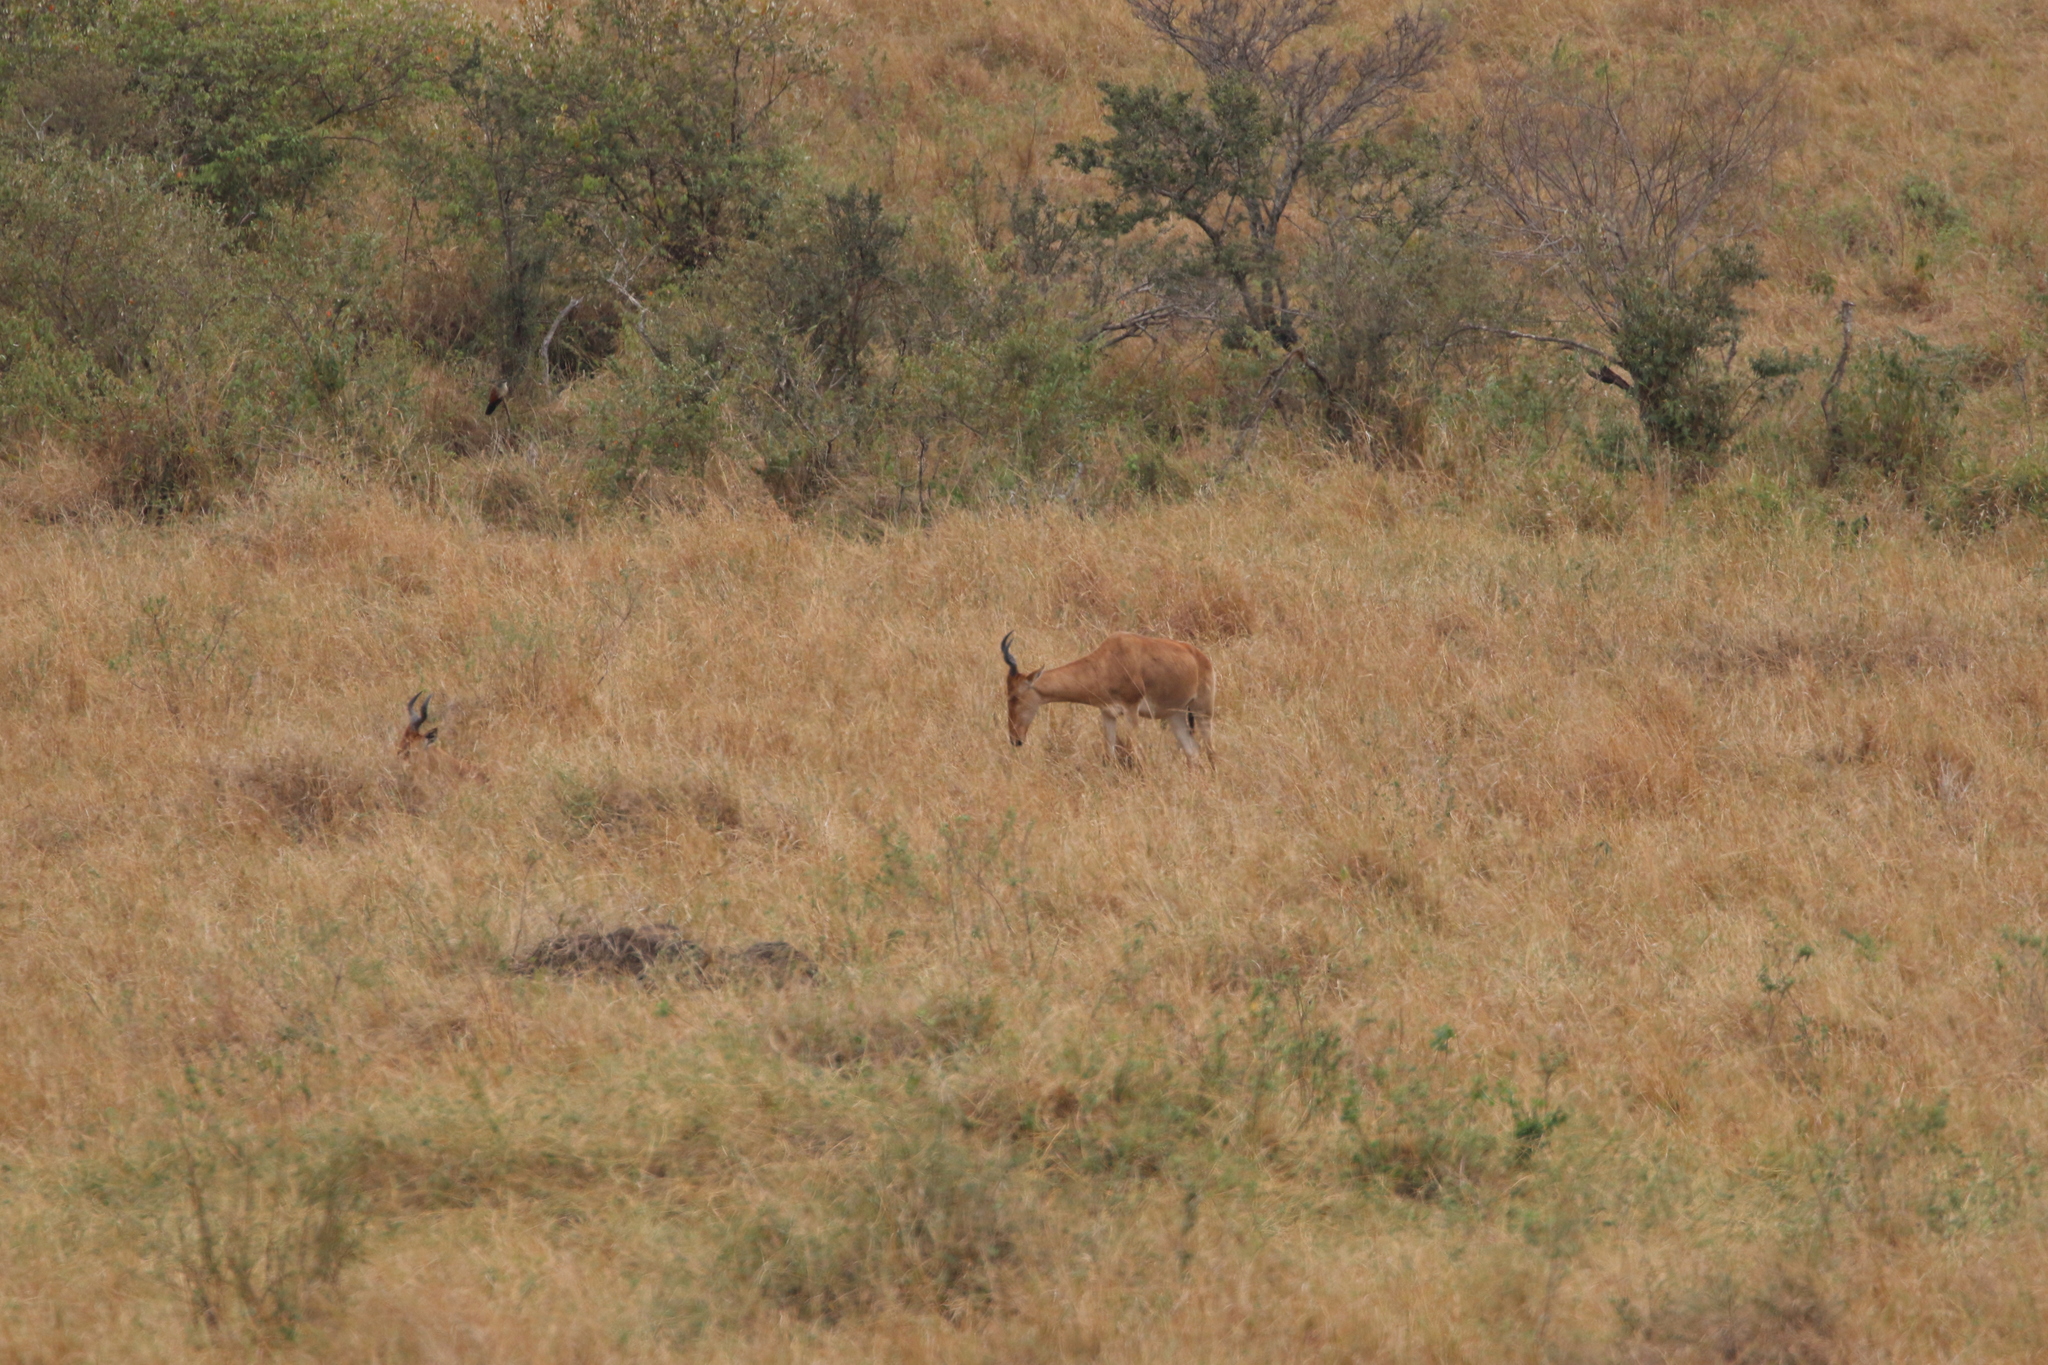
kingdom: Animalia
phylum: Chordata
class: Mammalia
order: Artiodactyla
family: Bovidae
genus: Alcelaphus
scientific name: Alcelaphus buselaphus
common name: Hartebeest
